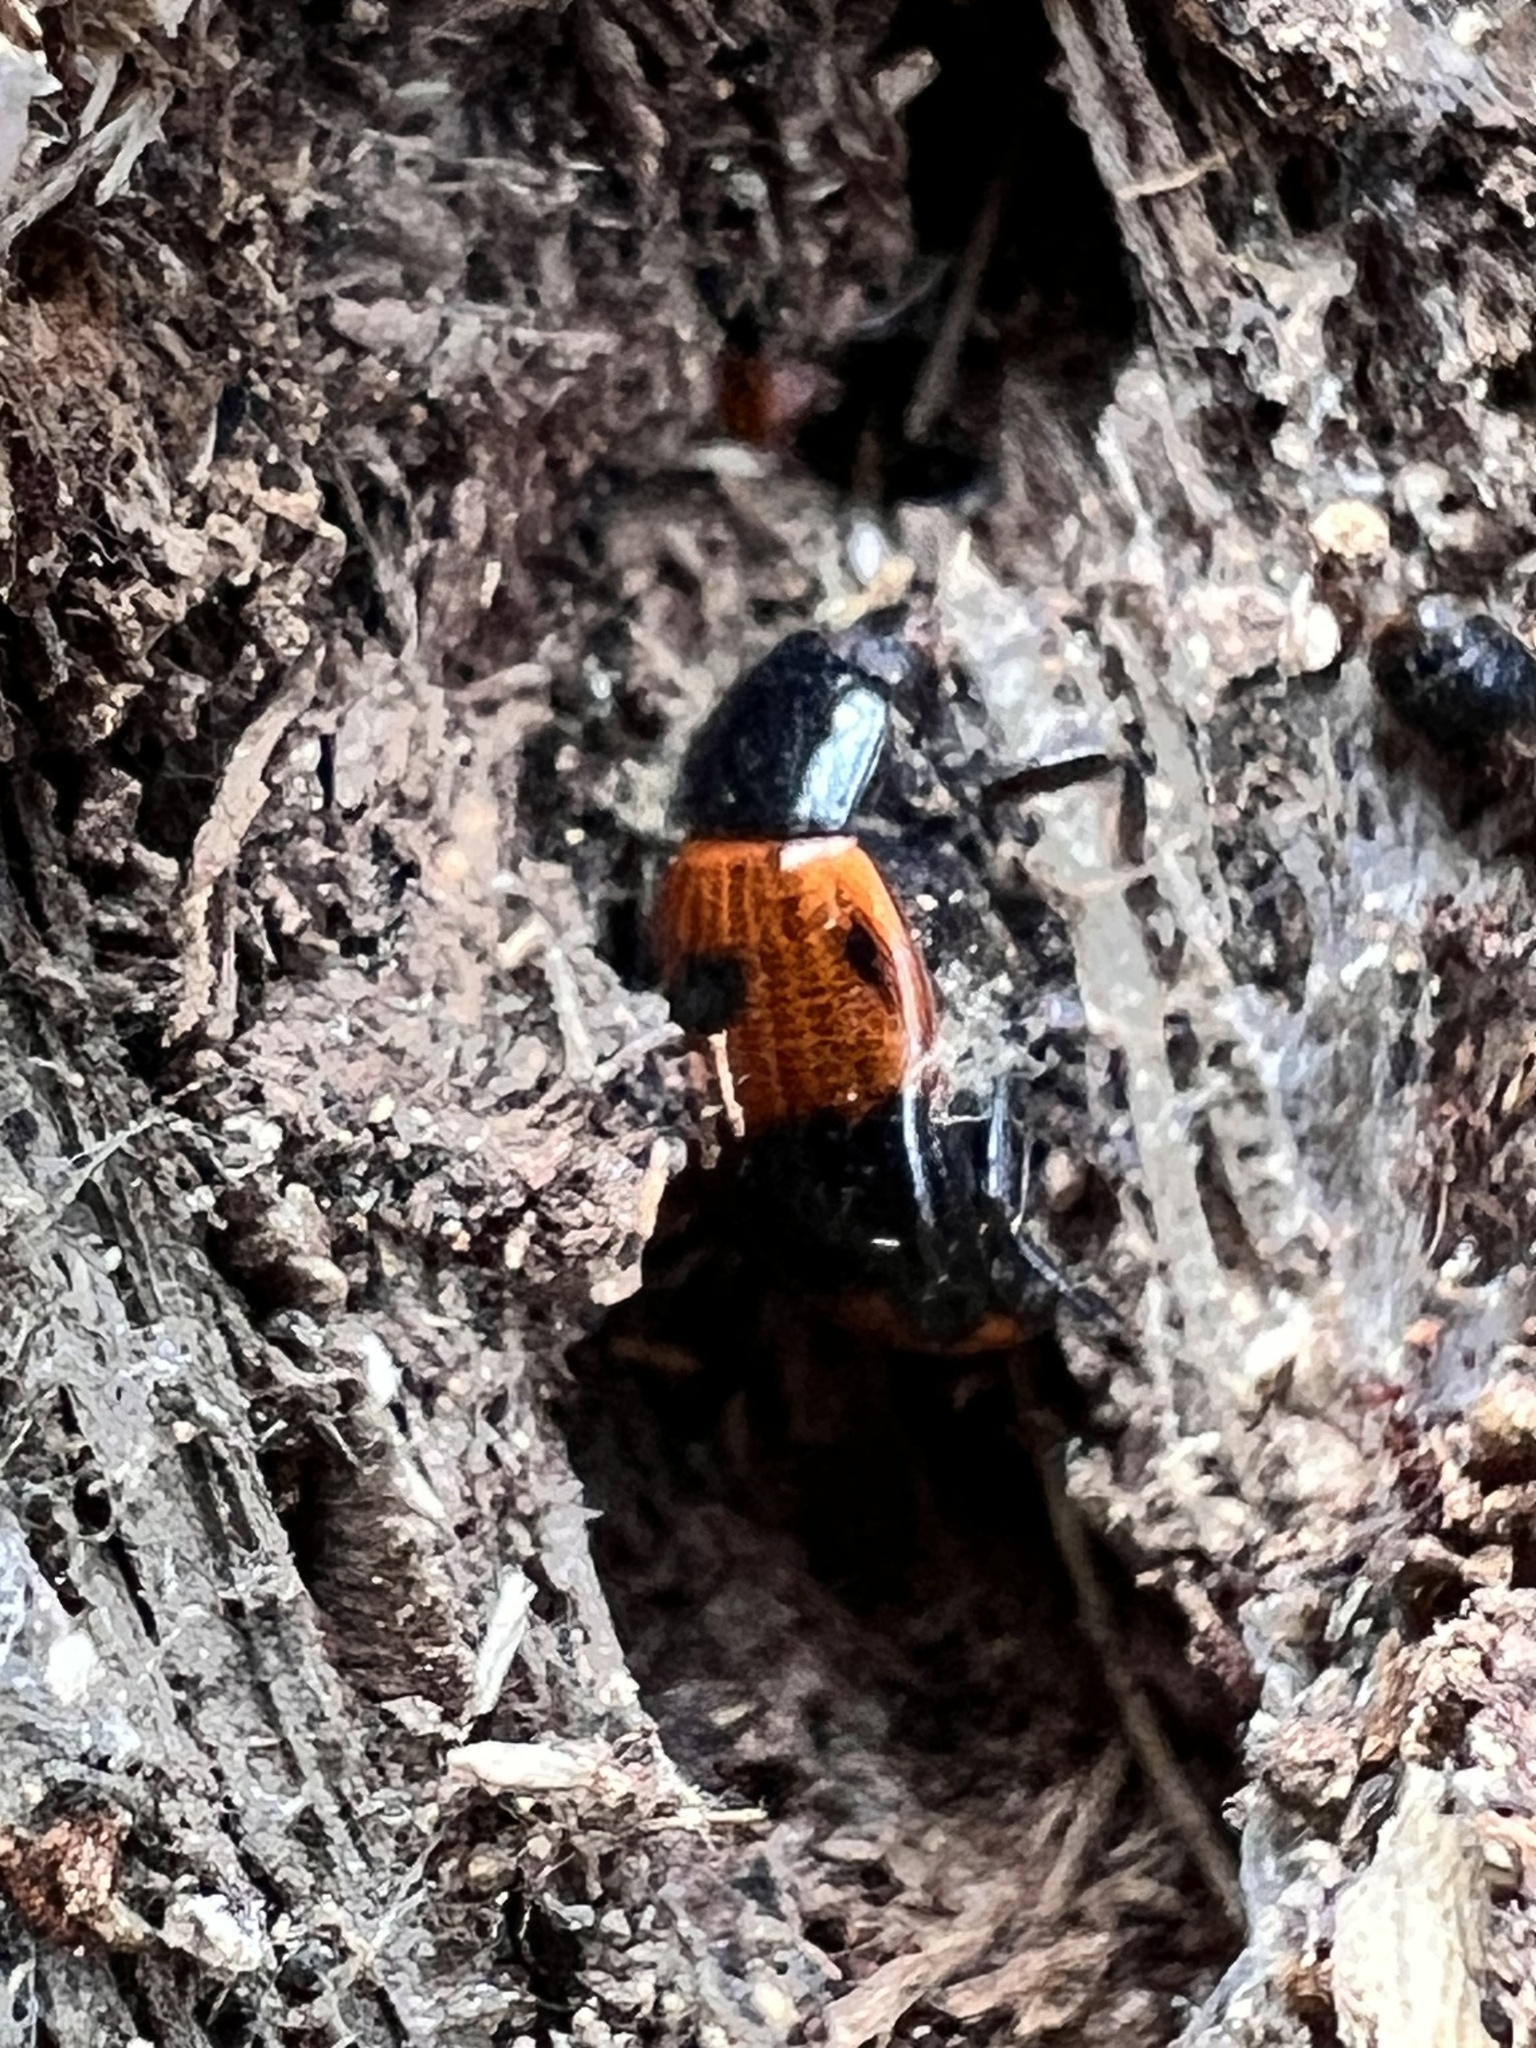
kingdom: Animalia
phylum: Arthropoda
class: Insecta
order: Coleoptera
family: Tenebrionidae
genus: Diaperis
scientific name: Diaperis maculata
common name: Darkling beetle
